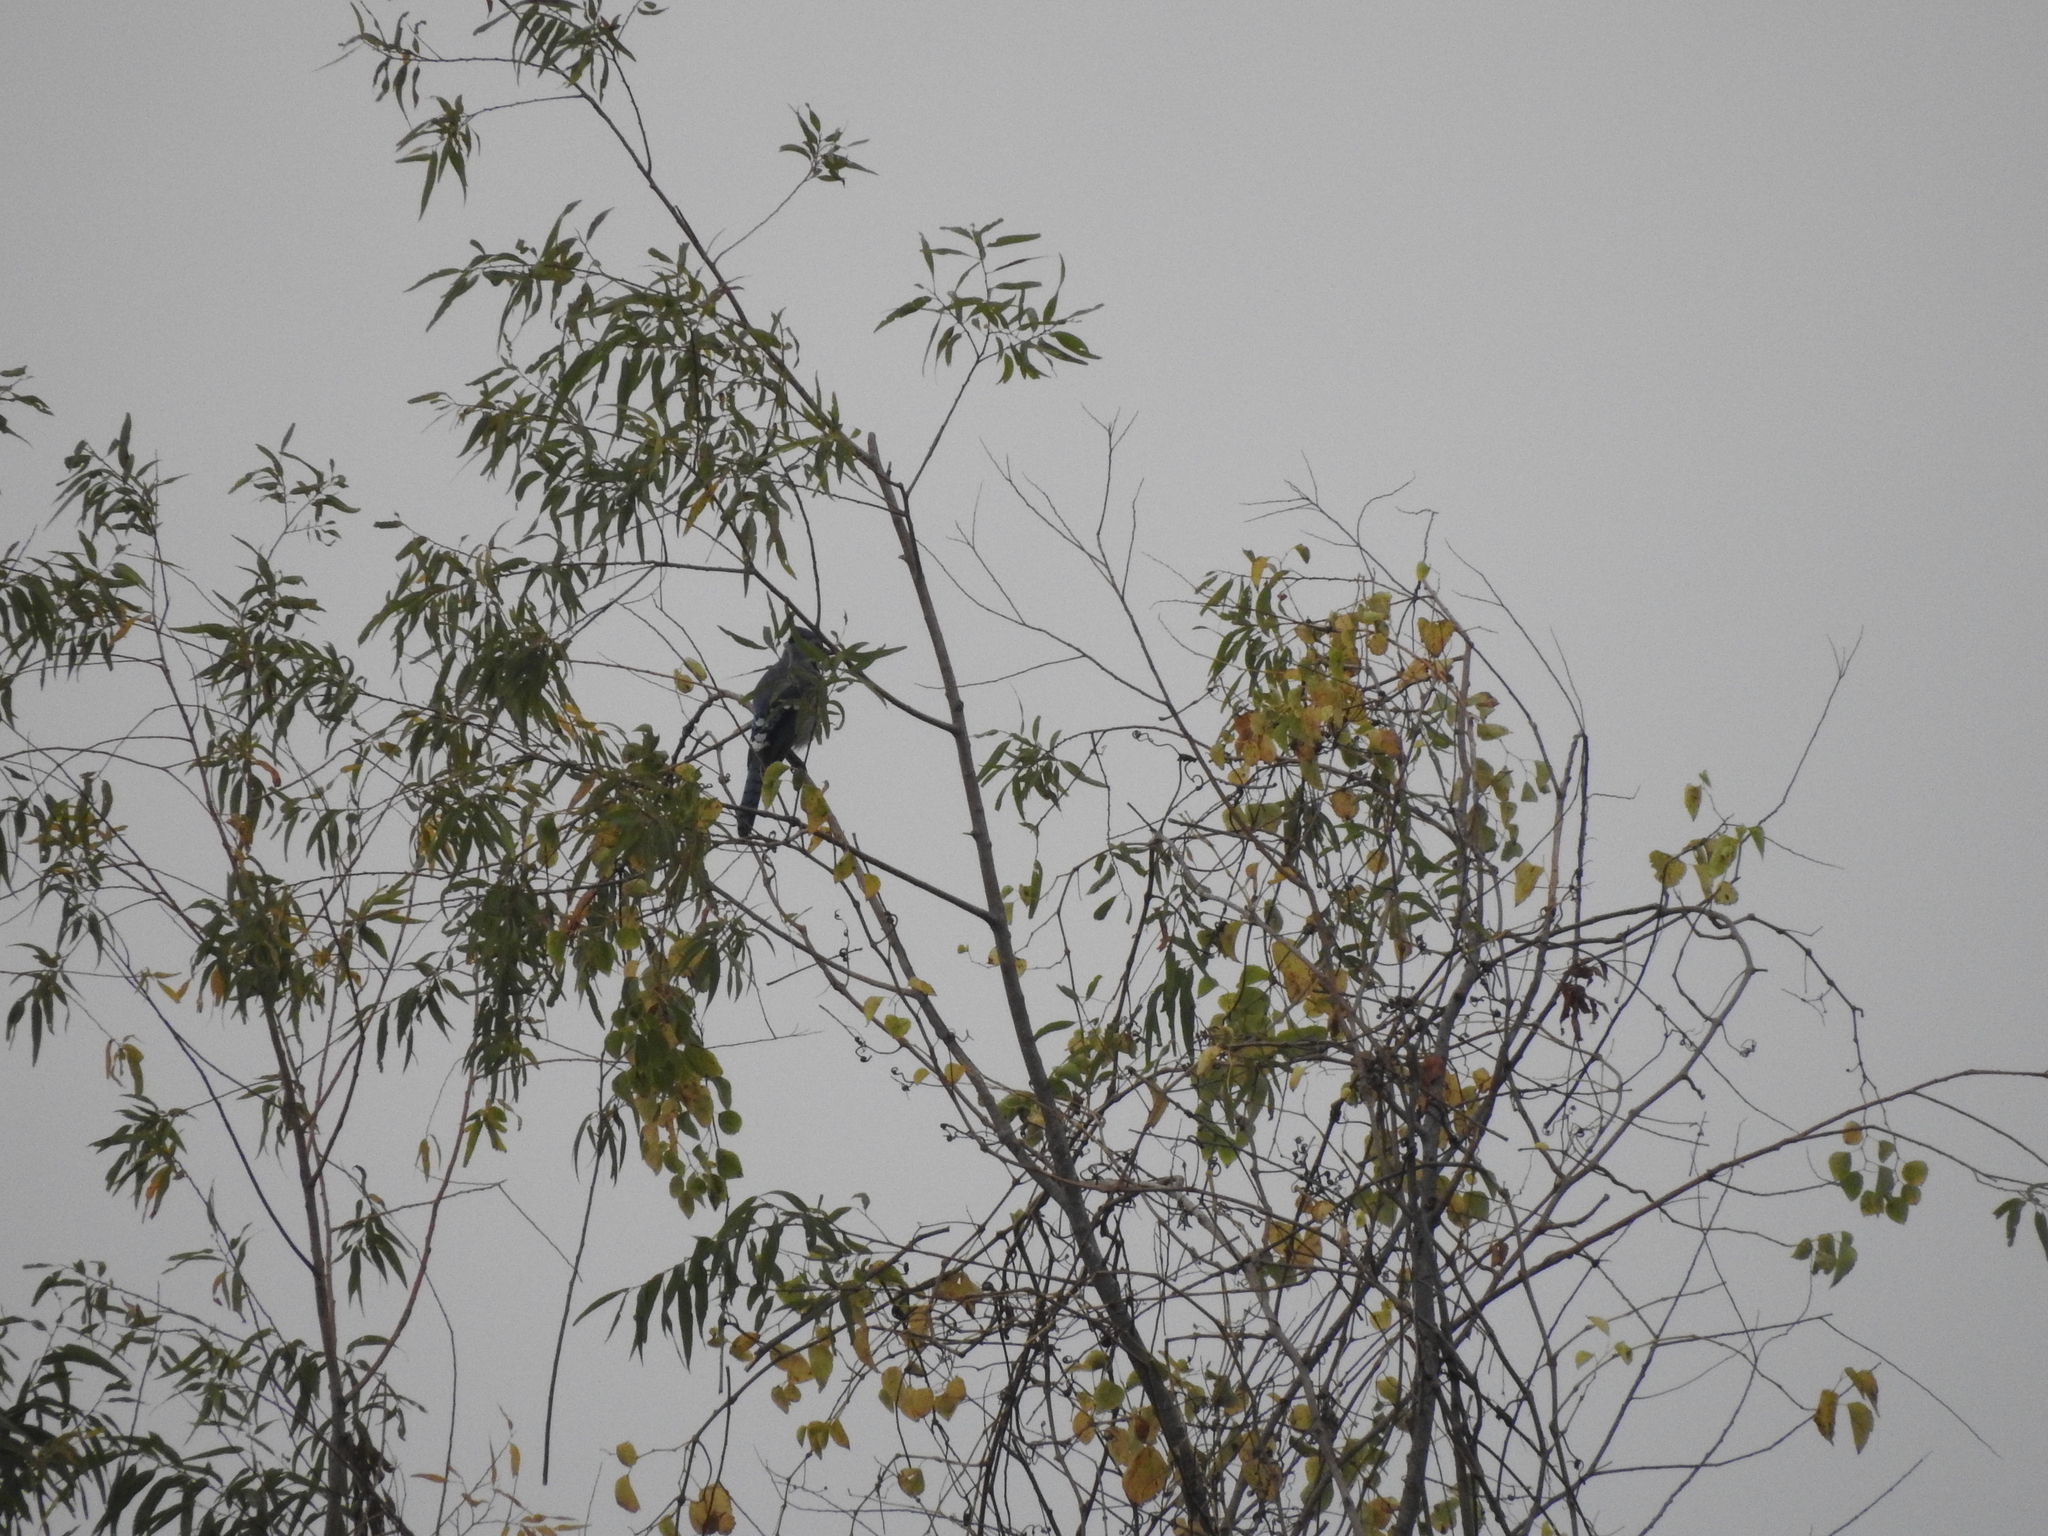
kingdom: Animalia
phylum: Chordata
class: Aves
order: Passeriformes
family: Corvidae
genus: Cyanocitta
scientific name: Cyanocitta cristata
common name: Blue jay
